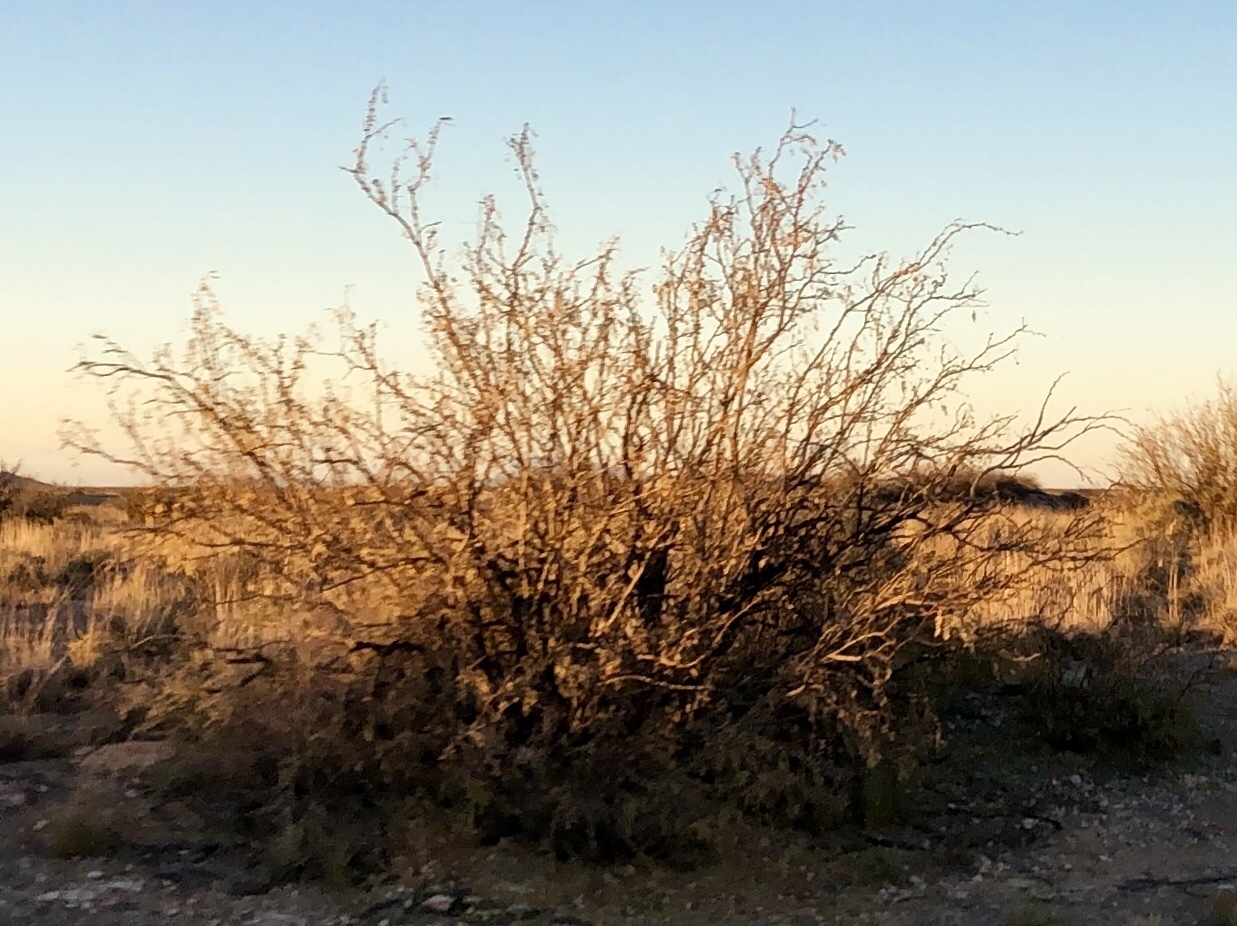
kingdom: Plantae
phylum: Tracheophyta
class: Magnoliopsida
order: Fabales
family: Fabaceae
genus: Prosopis
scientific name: Prosopis glandulosa
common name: Honey mesquite
